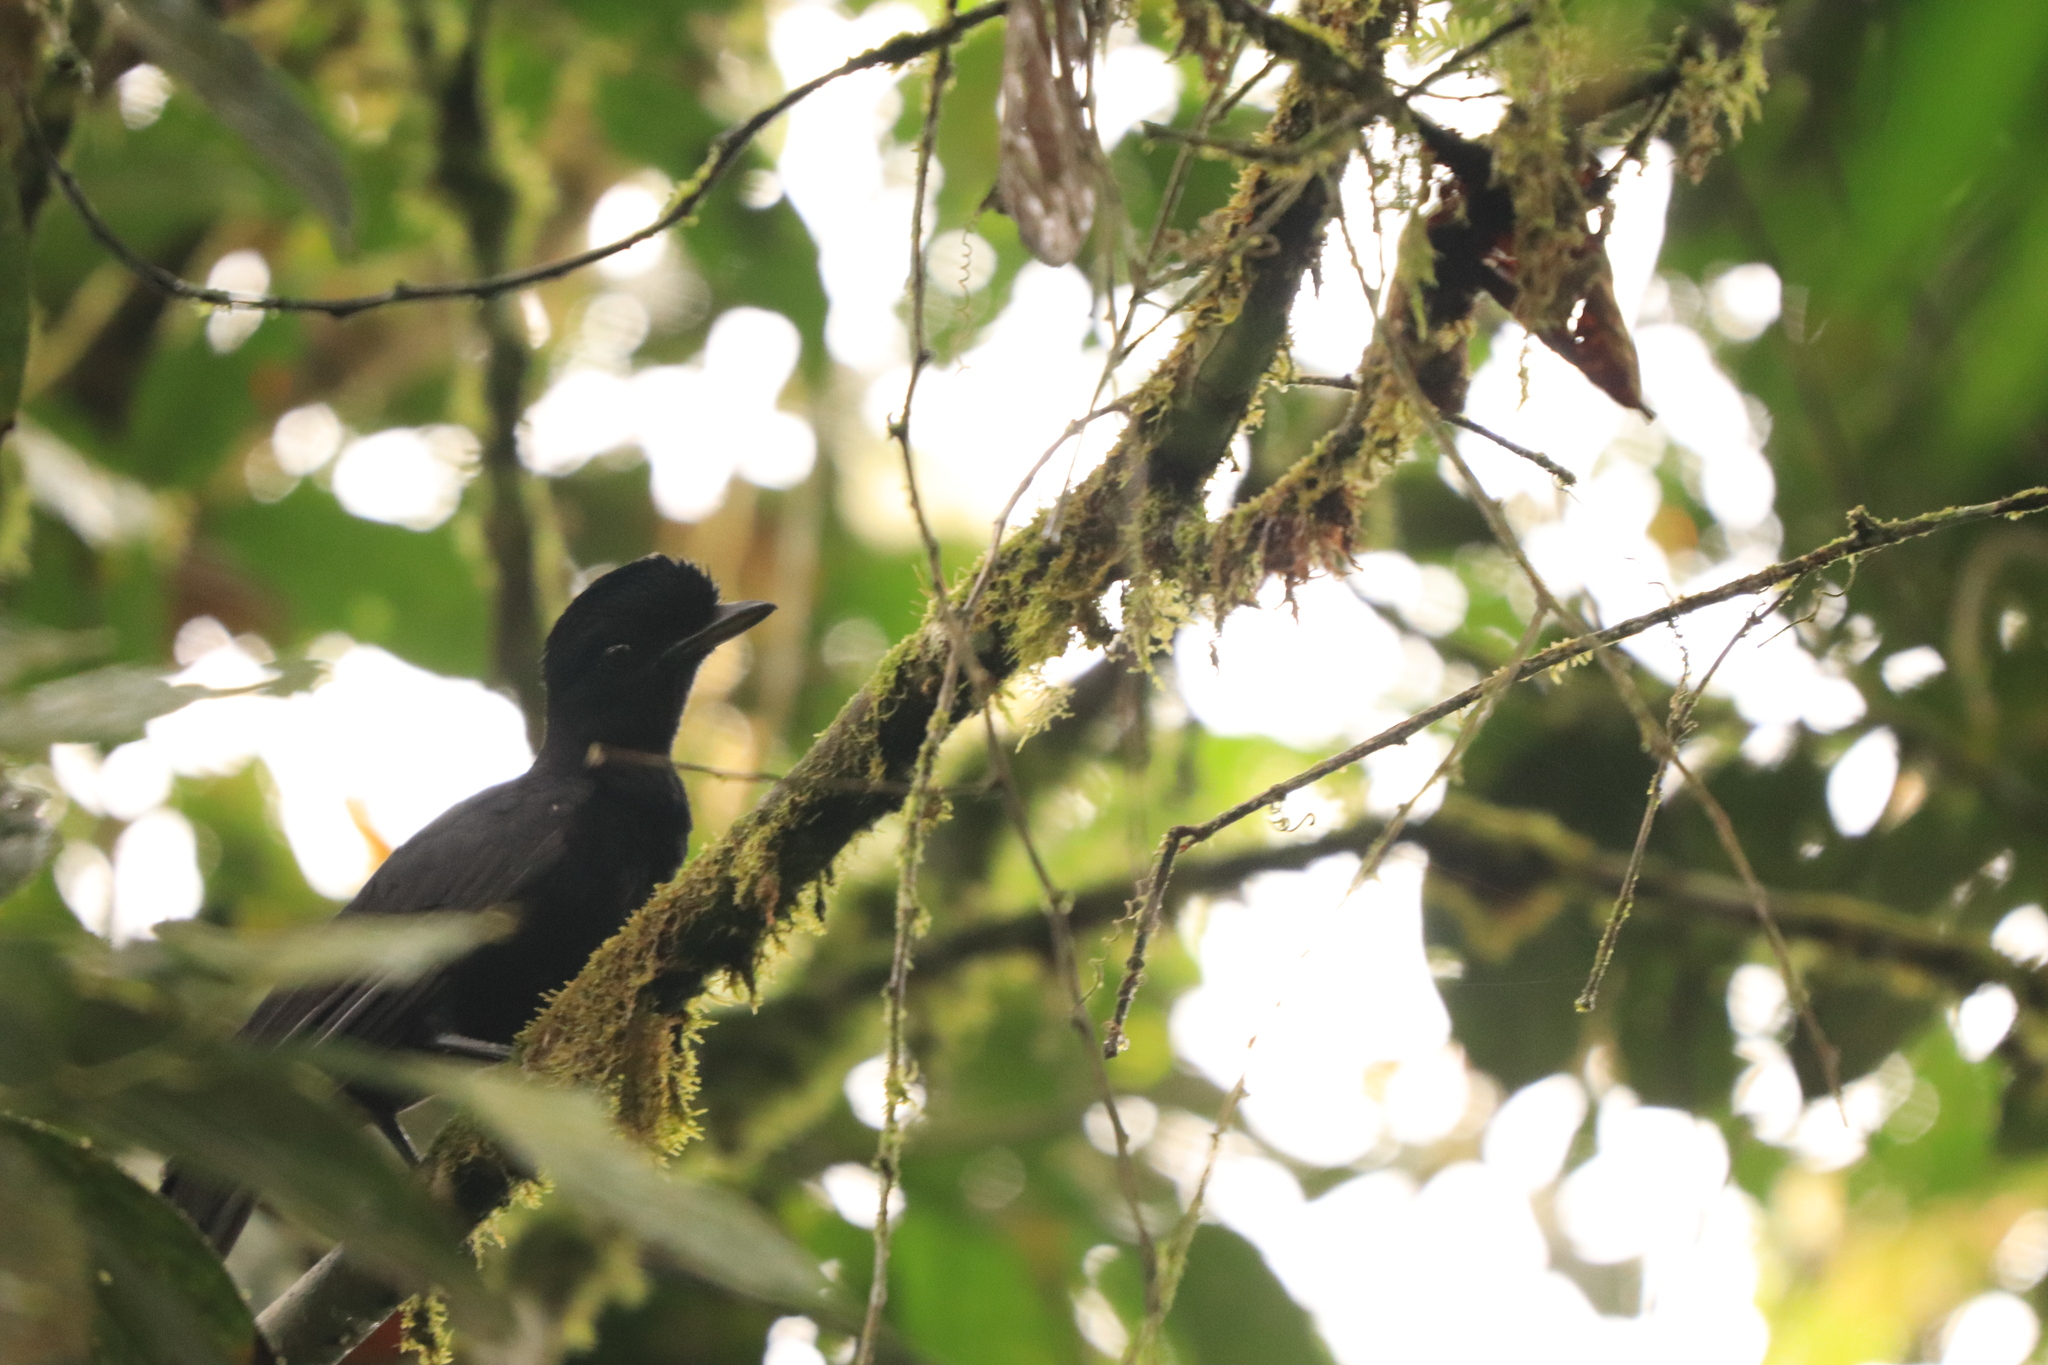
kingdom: Animalia
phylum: Chordata
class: Aves
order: Passeriformes
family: Cotingidae
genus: Cephalopterus
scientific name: Cephalopterus penduliger
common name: Long-wattled umbrellabird
